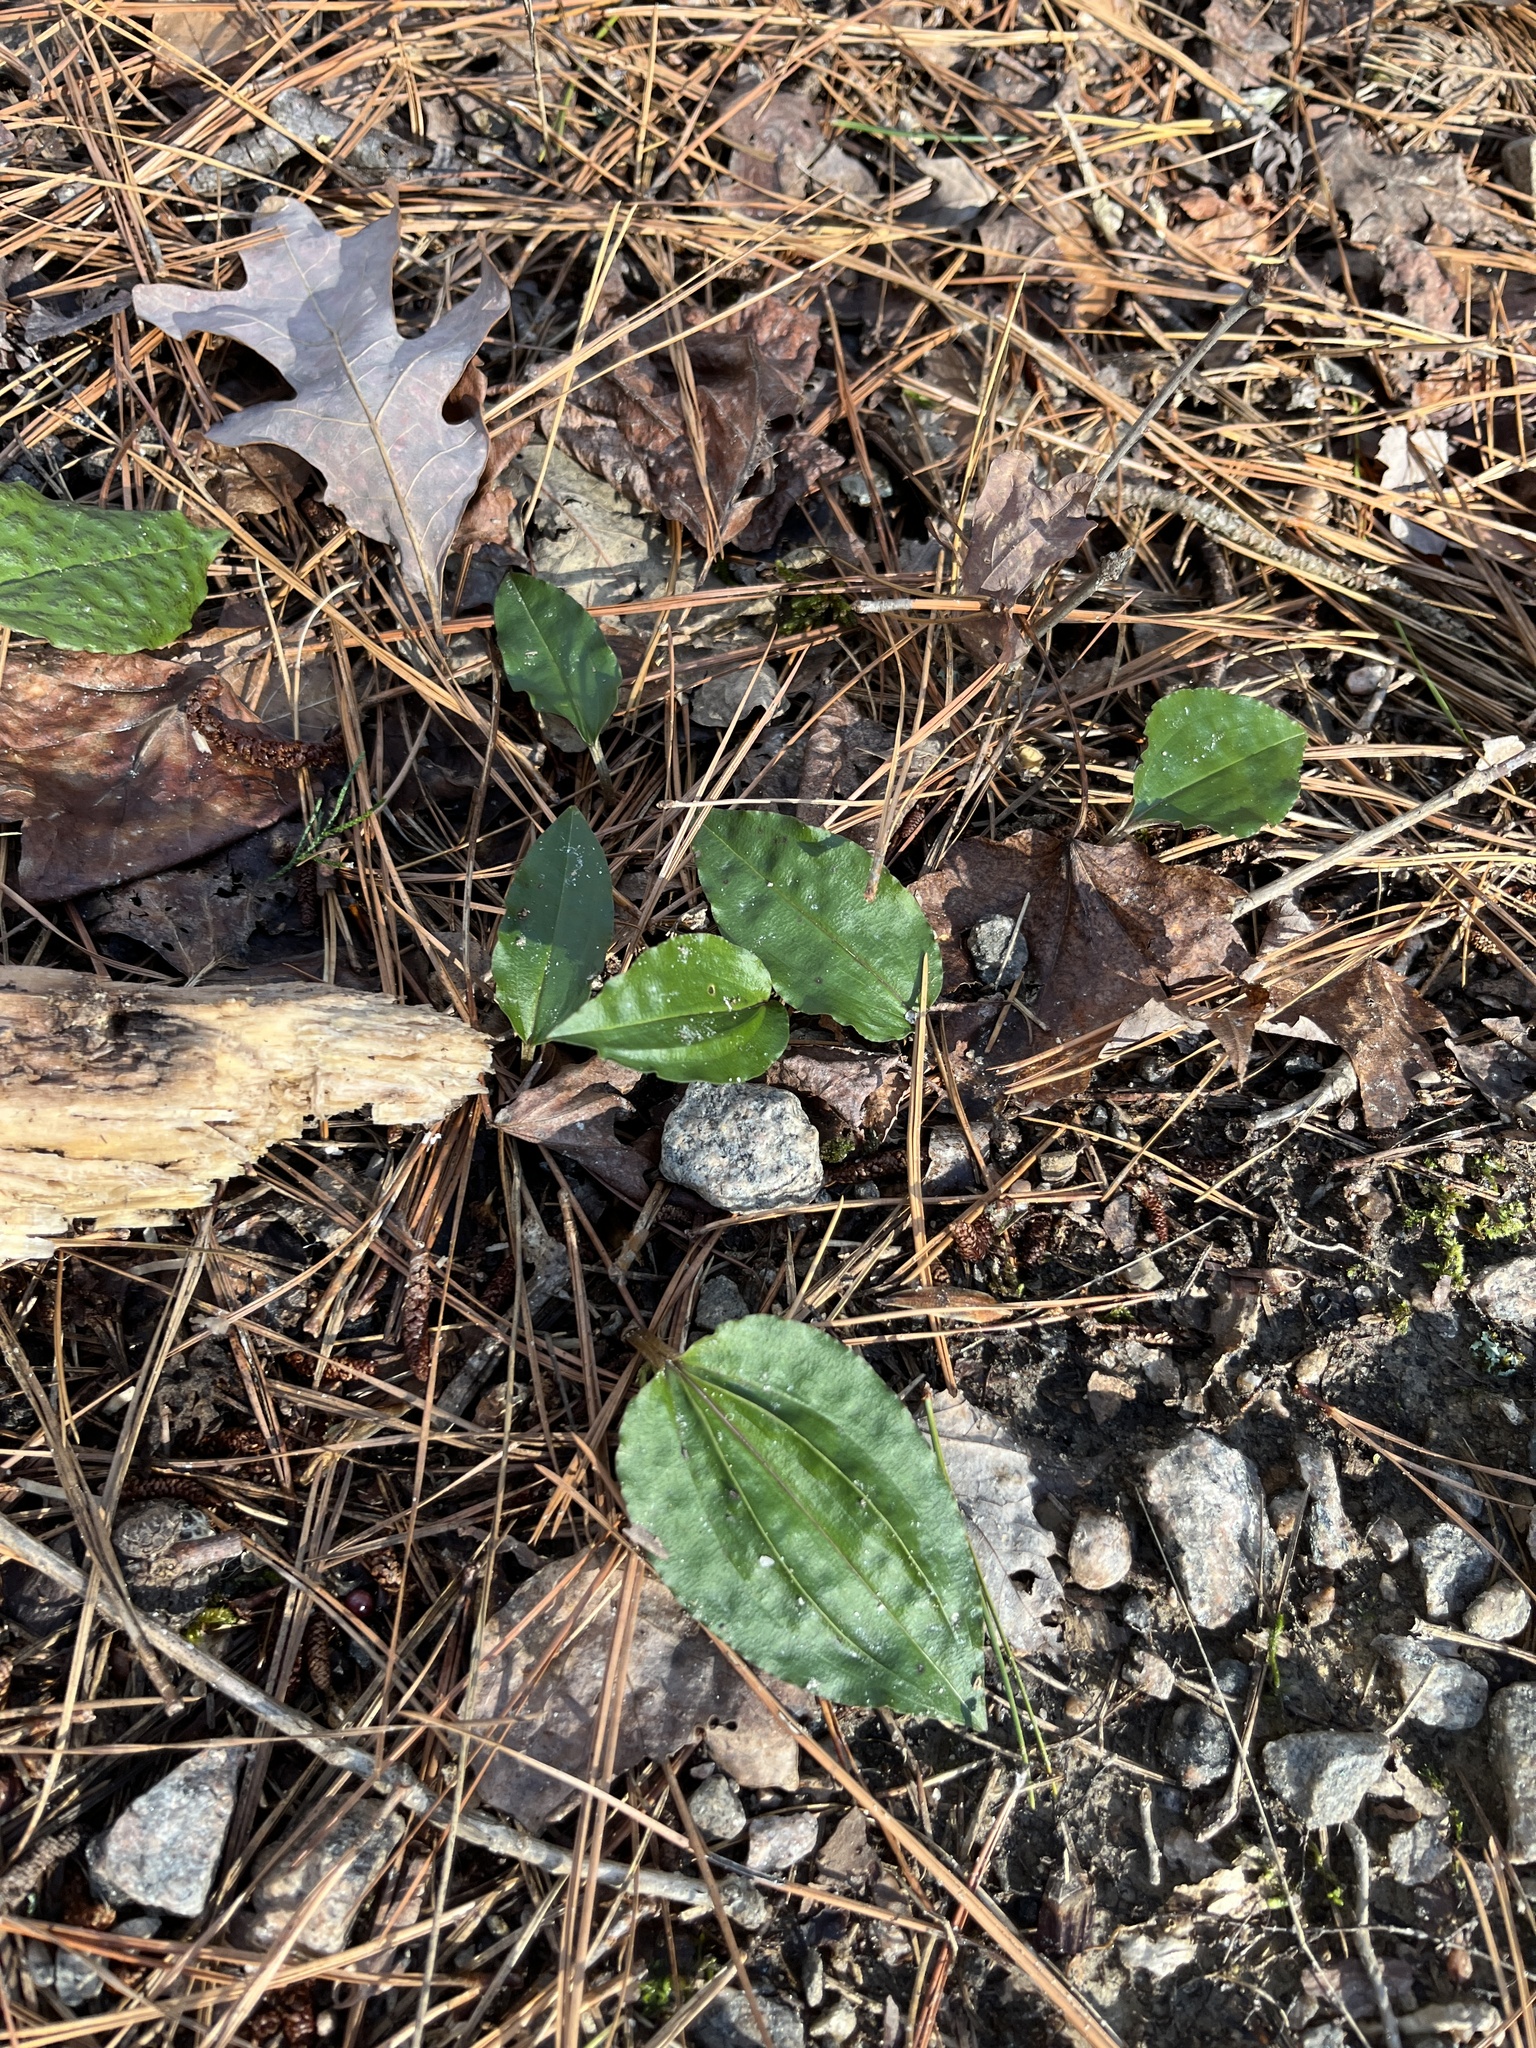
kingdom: Plantae
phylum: Tracheophyta
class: Liliopsida
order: Asparagales
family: Orchidaceae
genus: Tipularia
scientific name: Tipularia discolor
